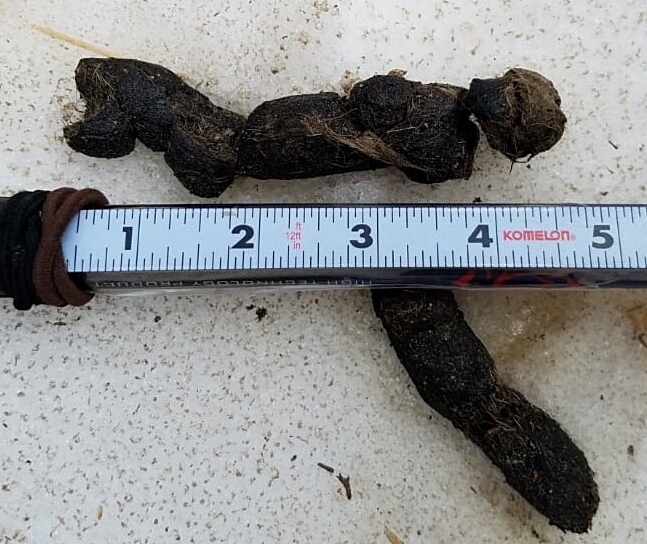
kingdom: Animalia
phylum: Chordata
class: Mammalia
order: Carnivora
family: Felidae
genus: Lynx
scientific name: Lynx rufus
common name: Bobcat
